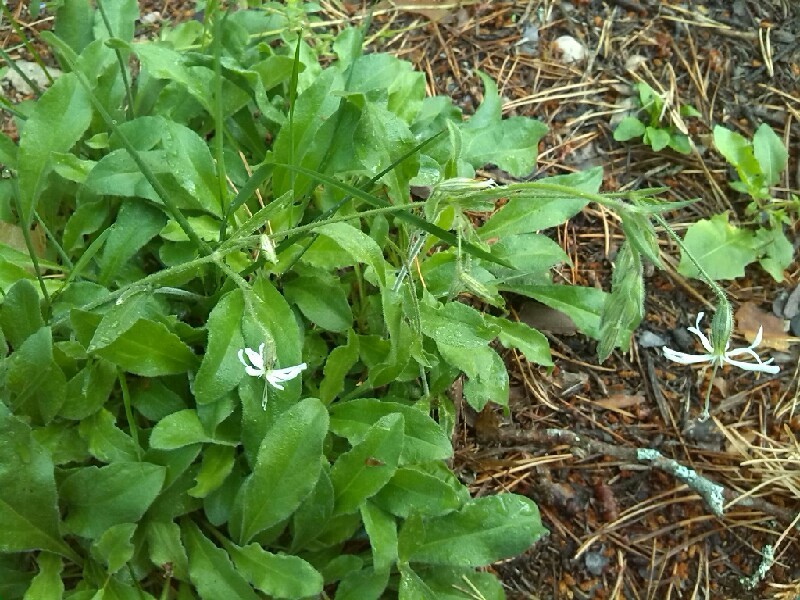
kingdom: Plantae
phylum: Tracheophyta
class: Magnoliopsida
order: Caryophyllales
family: Caryophyllaceae
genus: Silene
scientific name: Silene nutans
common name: Nottingham catchfly
